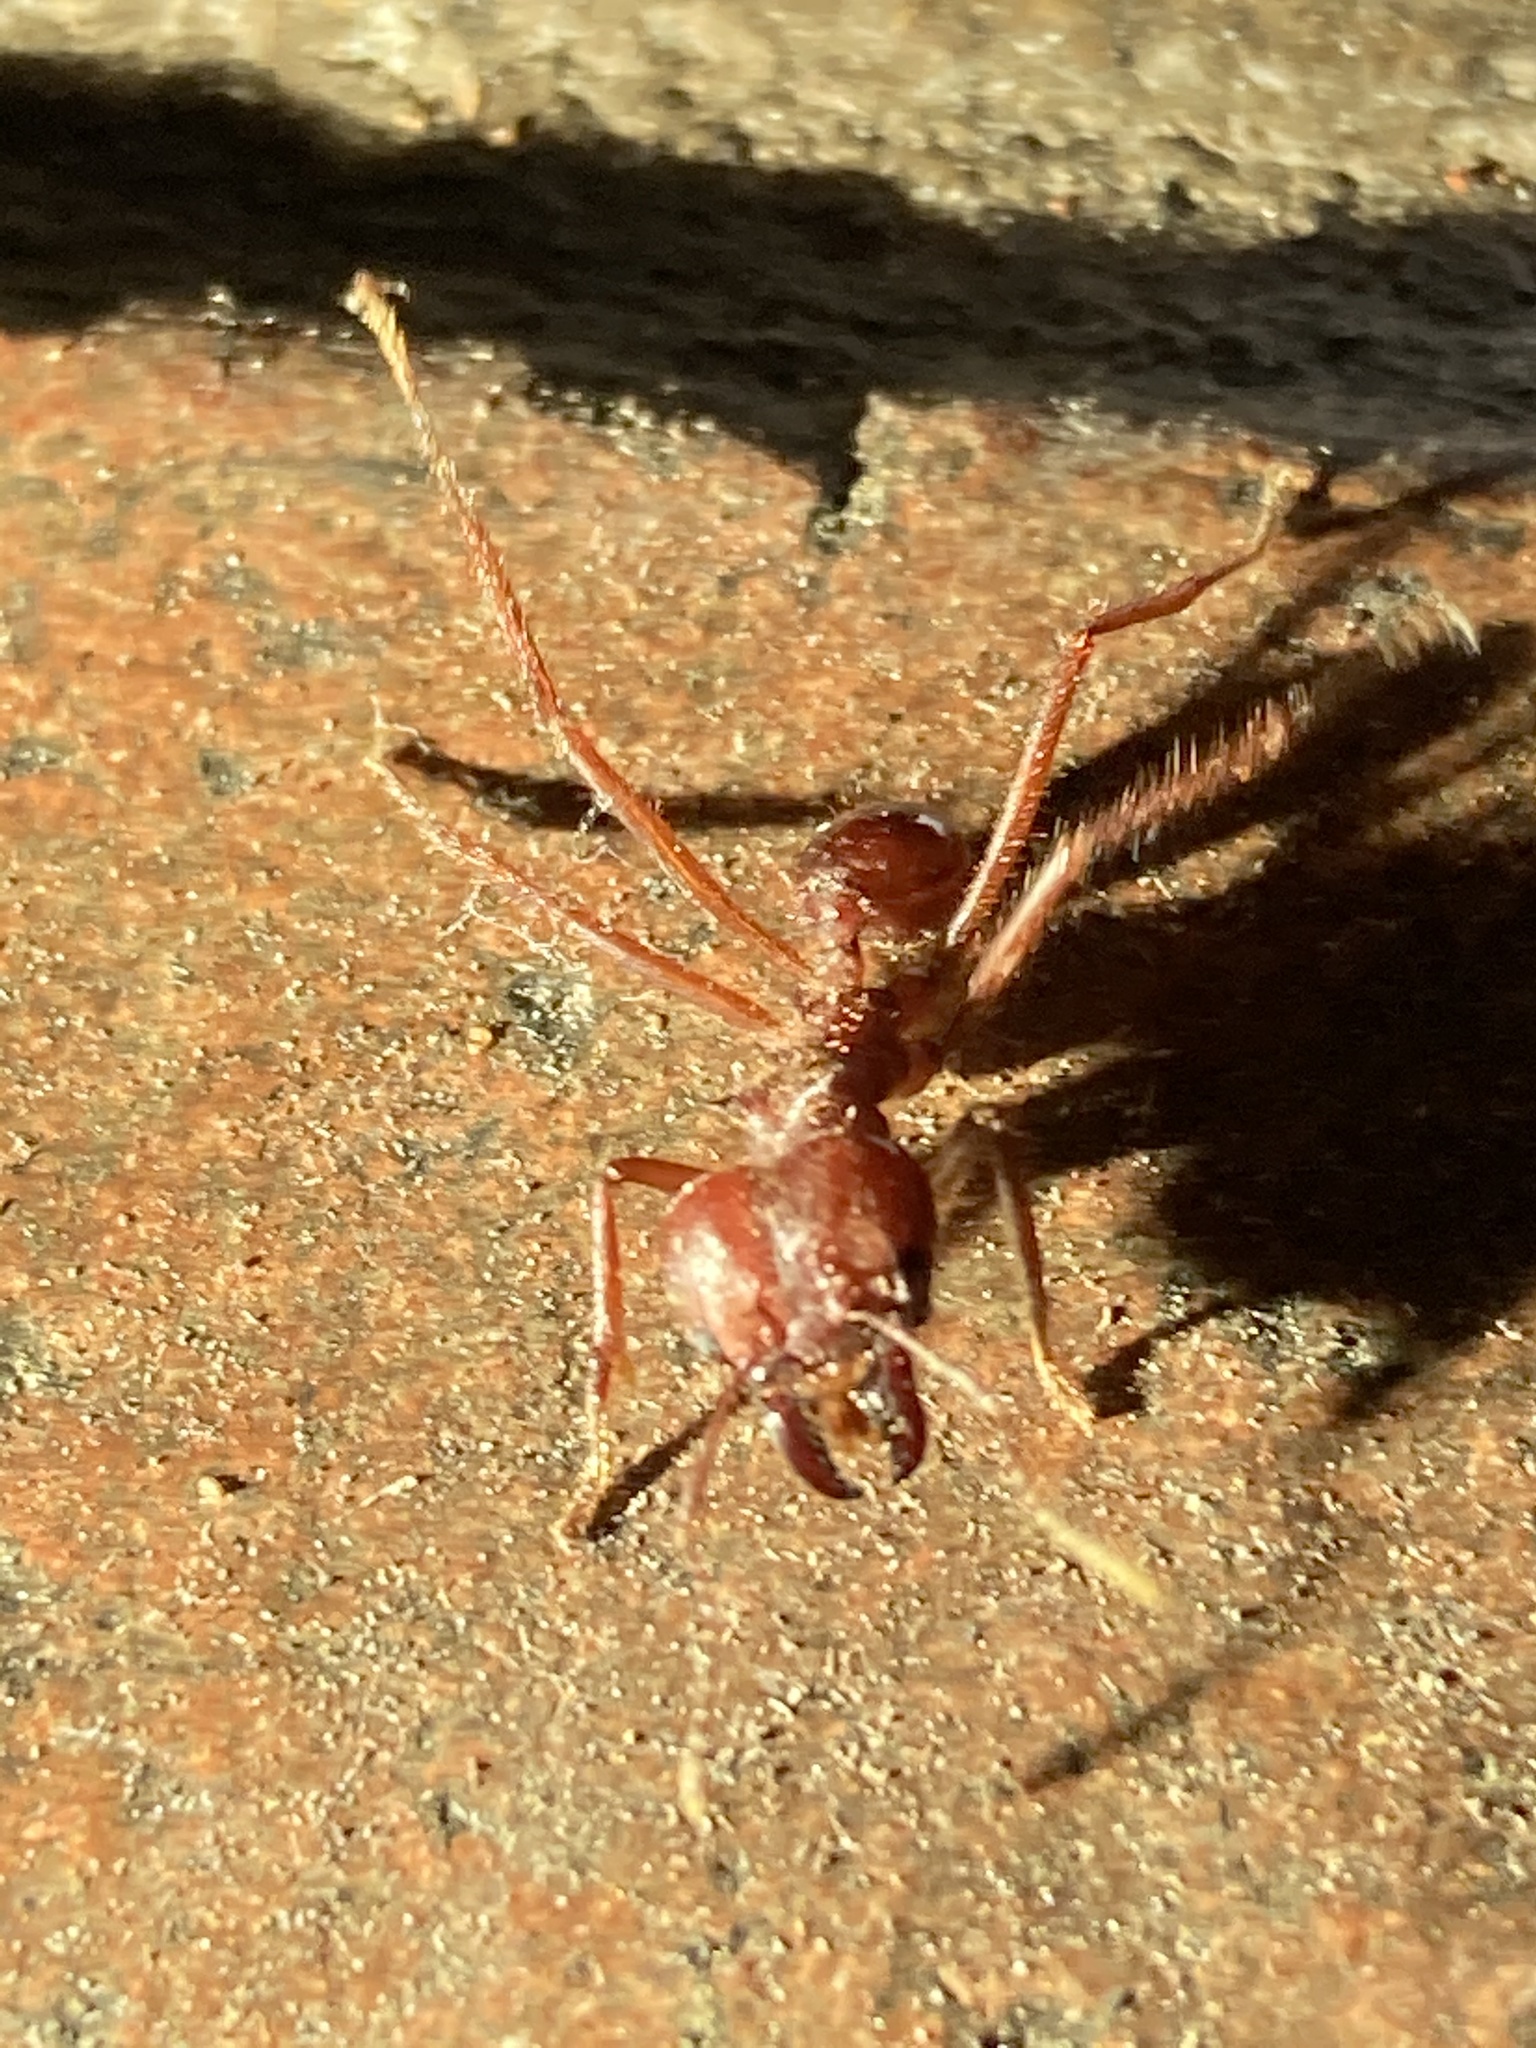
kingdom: Animalia
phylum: Arthropoda
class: Insecta
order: Hymenoptera
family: Formicidae
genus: Atta
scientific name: Atta mexicana
